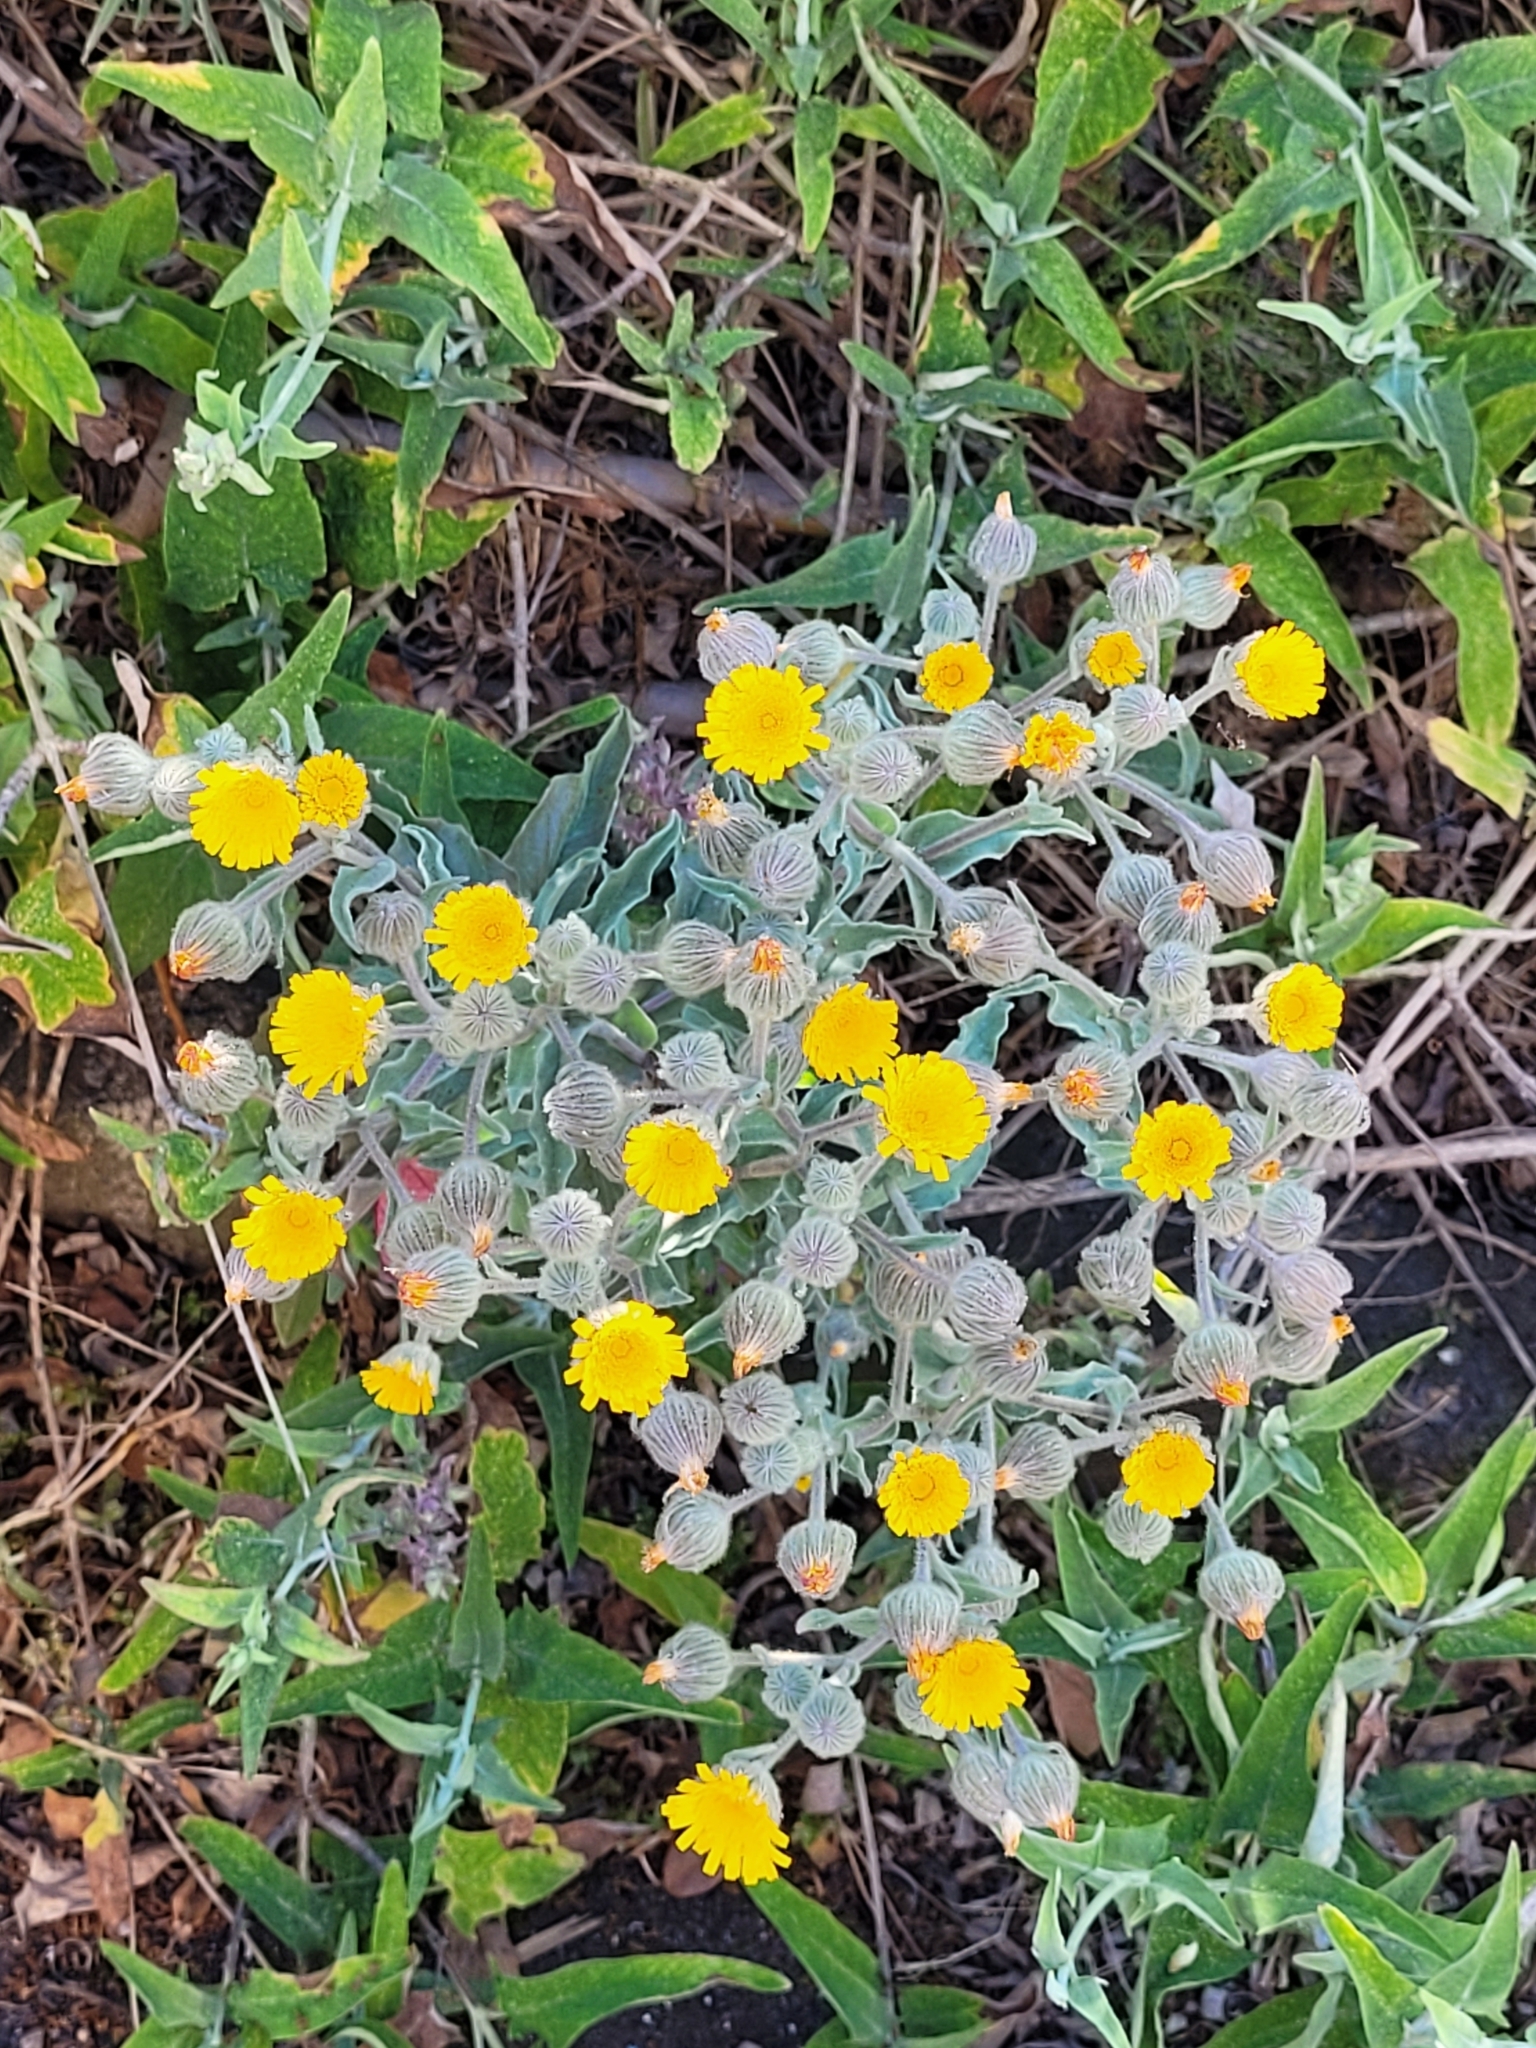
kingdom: Plantae
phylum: Tracheophyta
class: Magnoliopsida
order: Asterales
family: Asteraceae
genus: Andryala
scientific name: Andryala rothia
